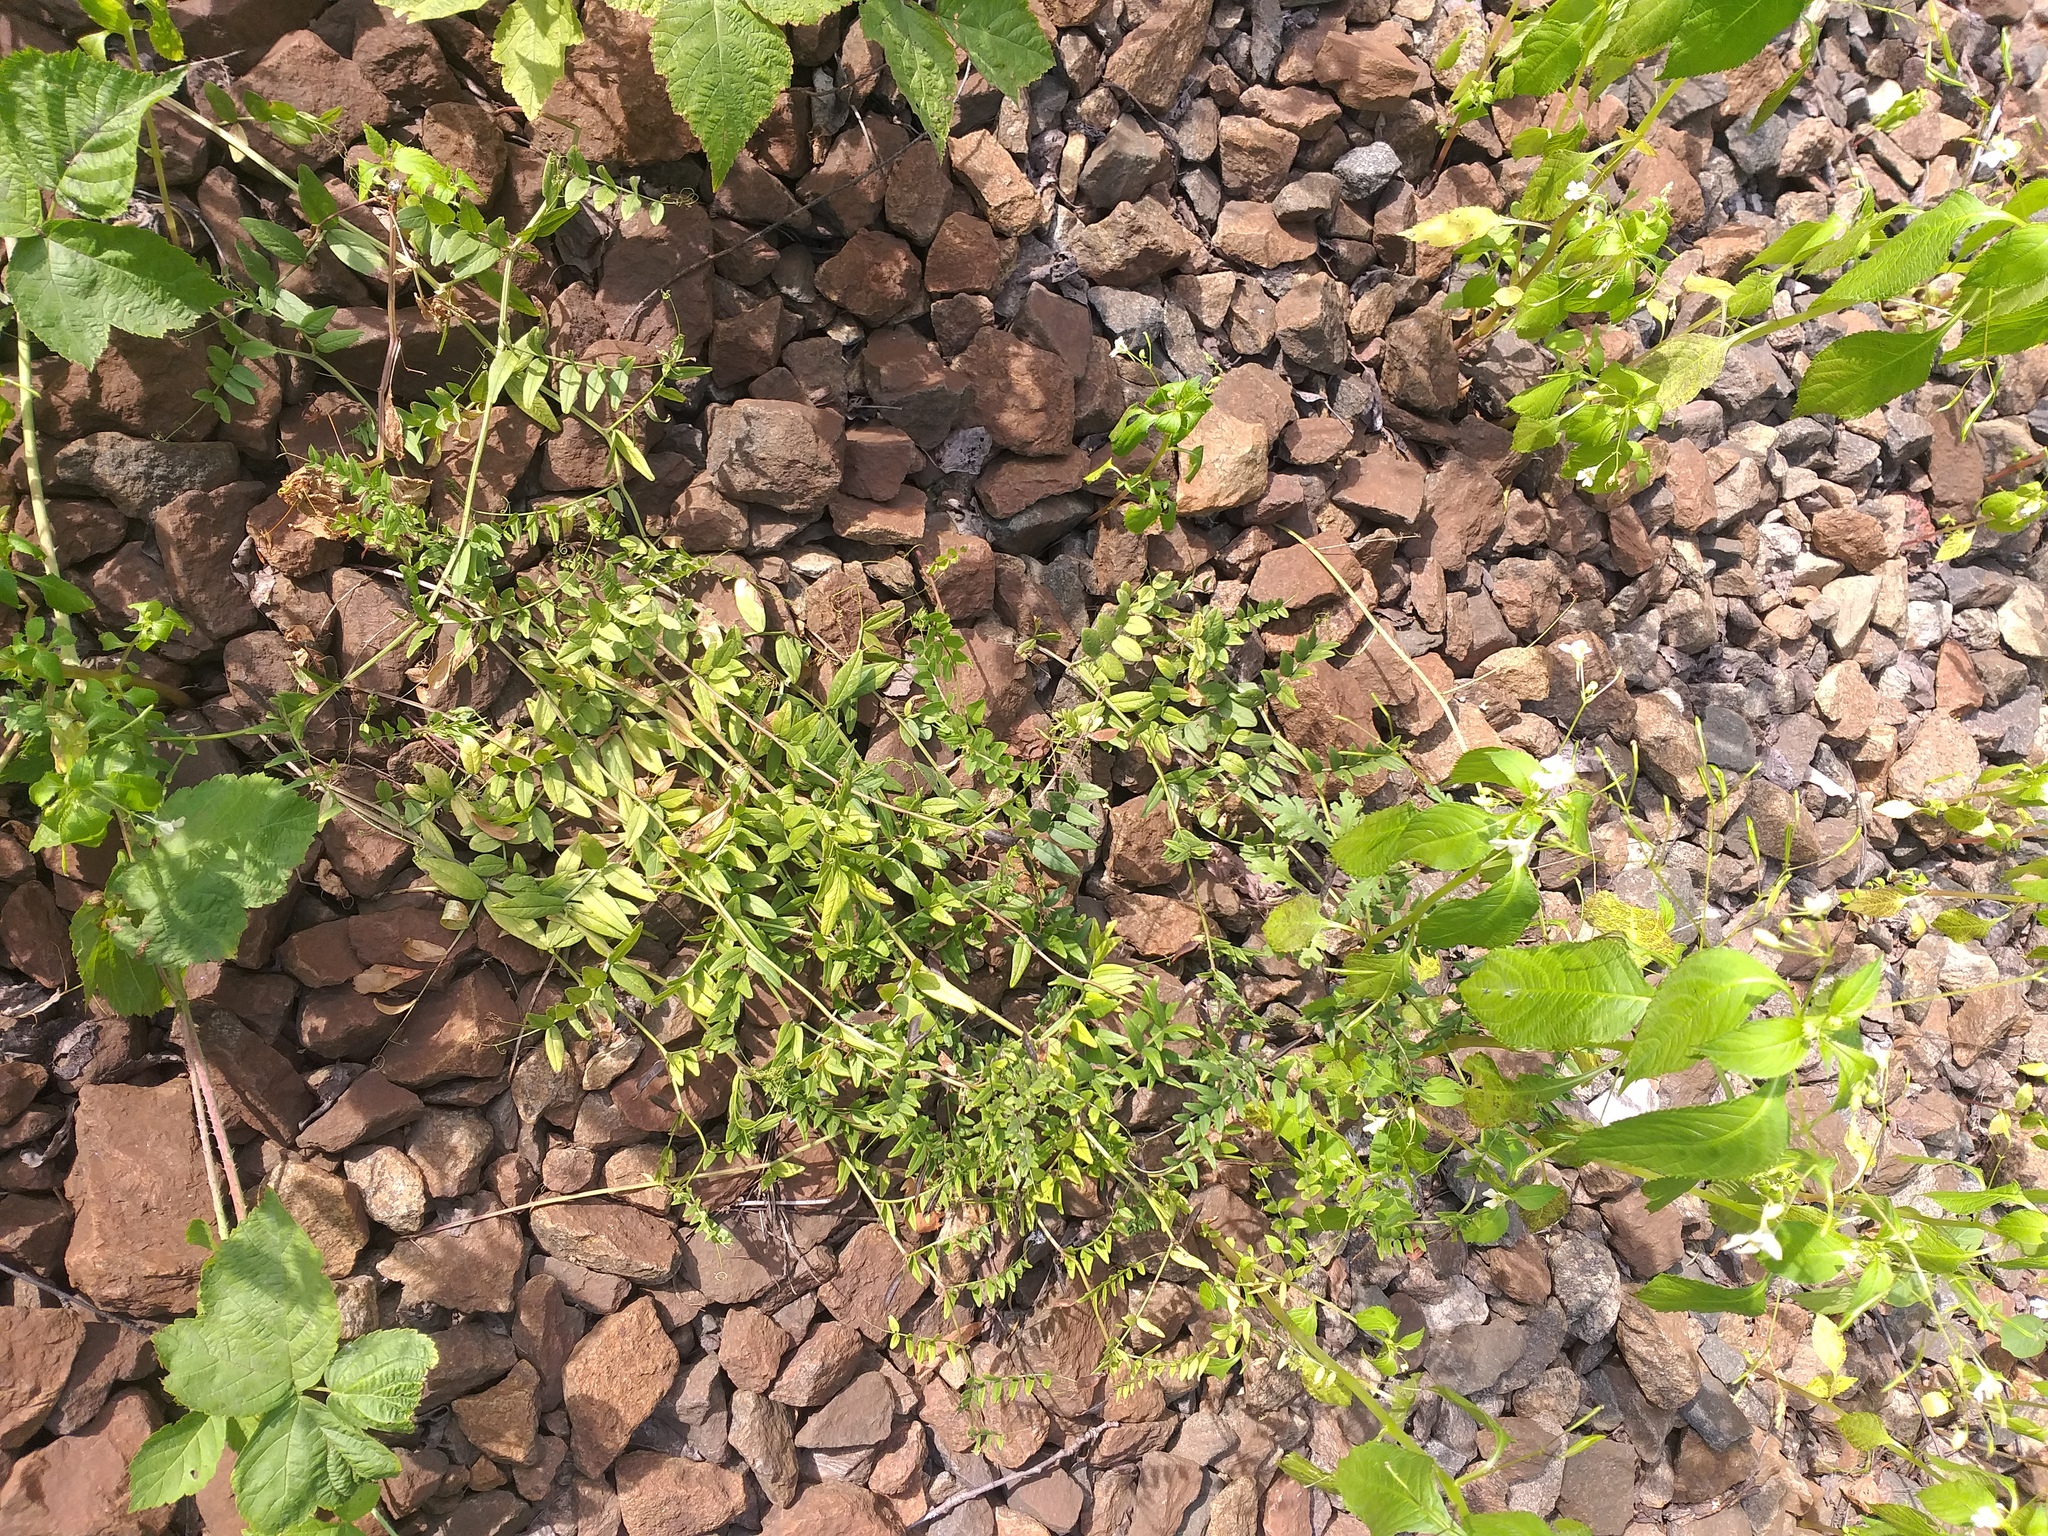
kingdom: Plantae
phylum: Tracheophyta
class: Magnoliopsida
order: Fabales
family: Fabaceae
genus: Vicia
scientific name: Vicia sepium
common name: Bush vetch
